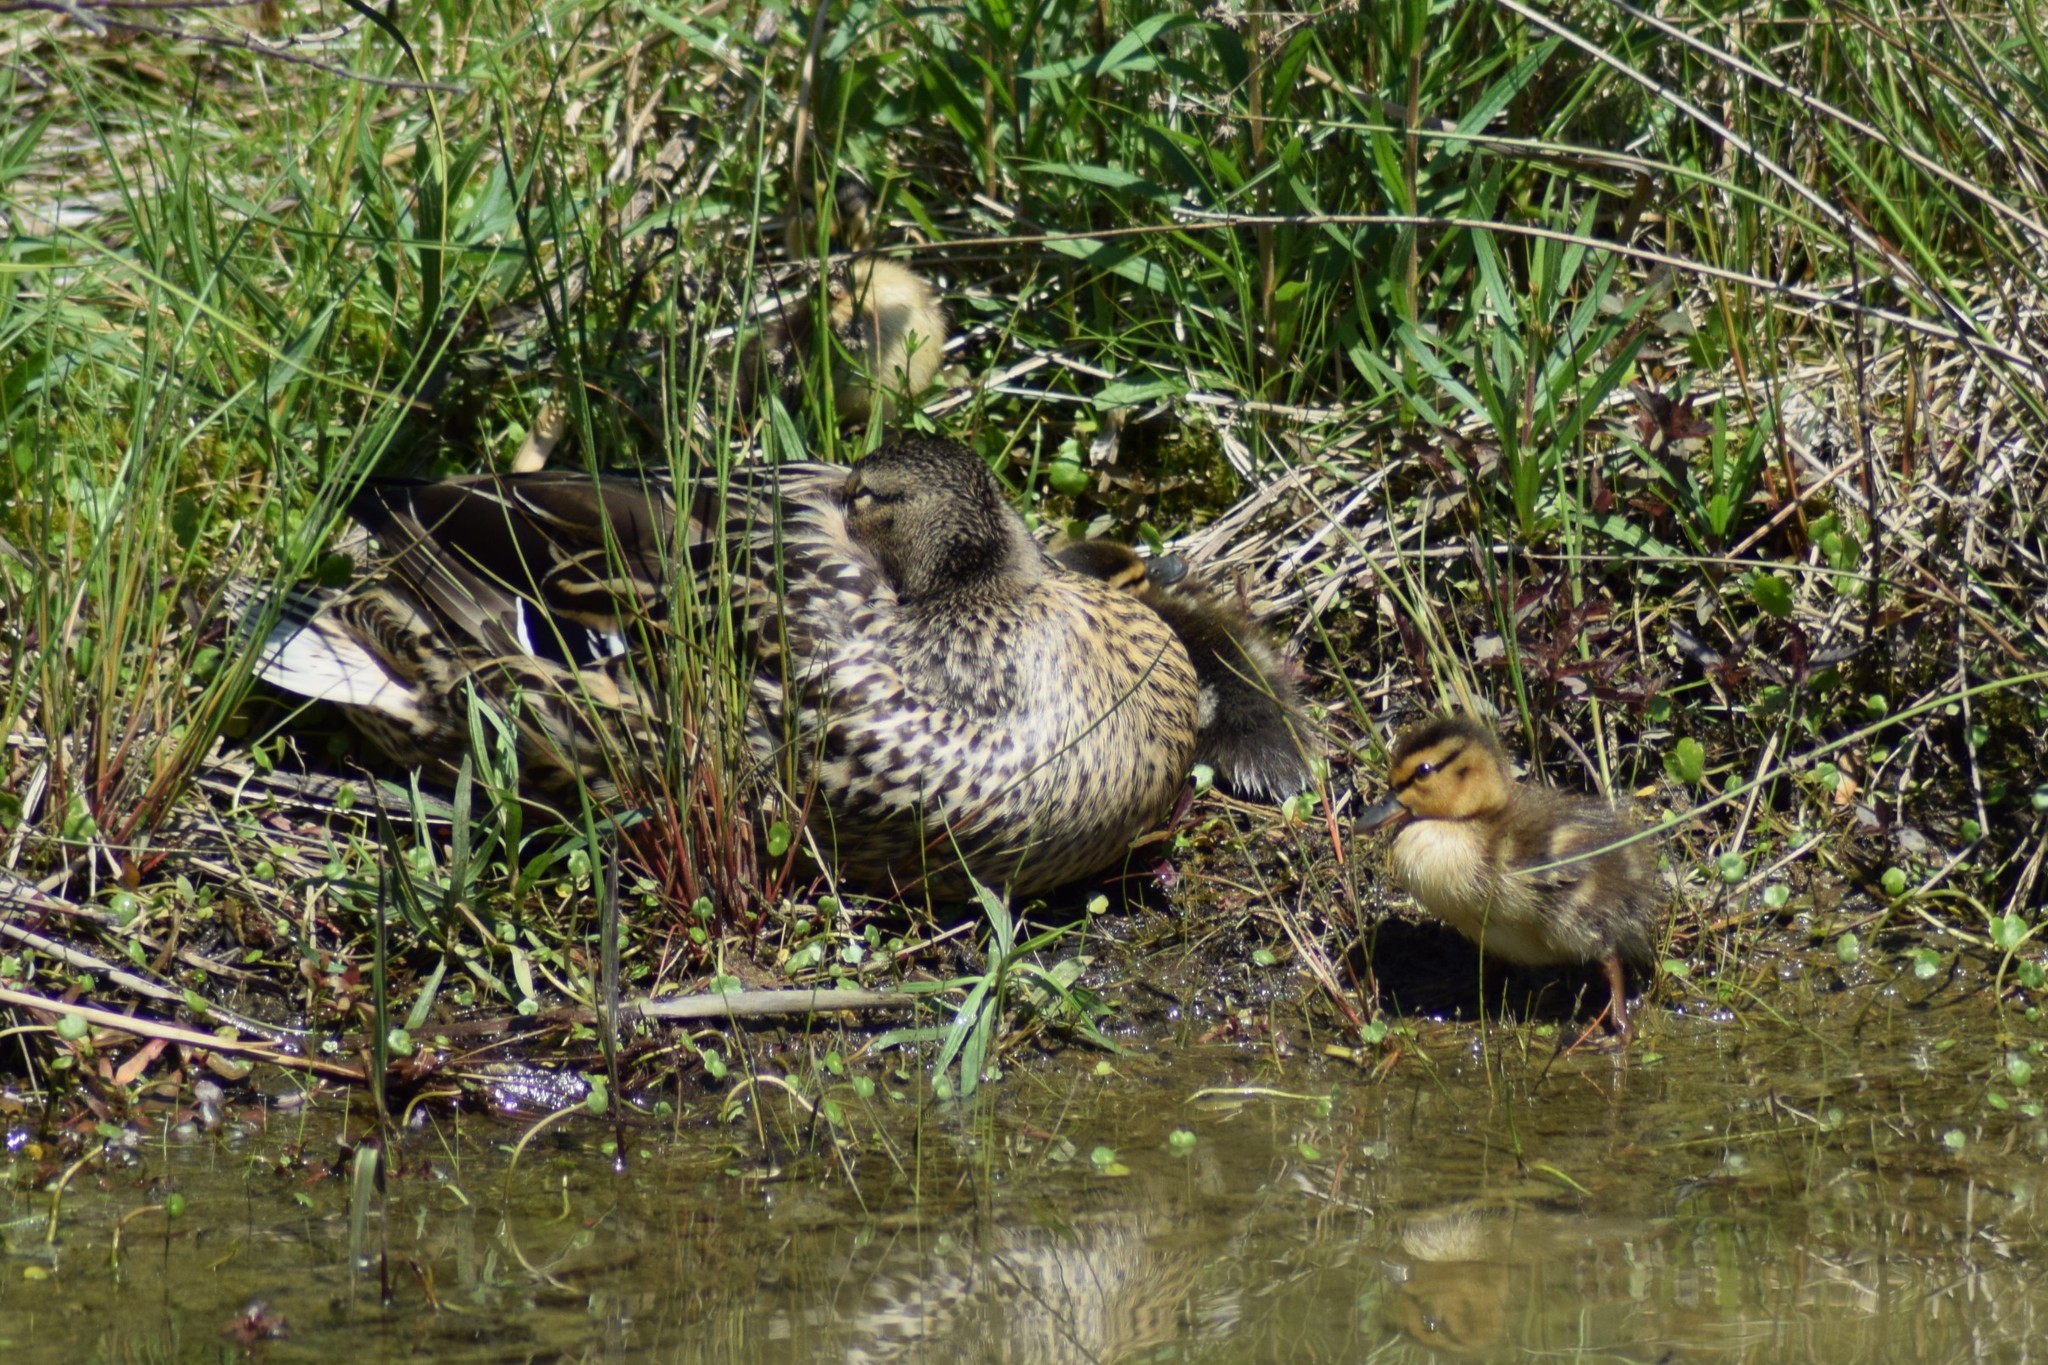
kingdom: Animalia
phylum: Chordata
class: Aves
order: Anseriformes
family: Anatidae
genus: Anas
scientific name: Anas platyrhynchos
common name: Mallard
